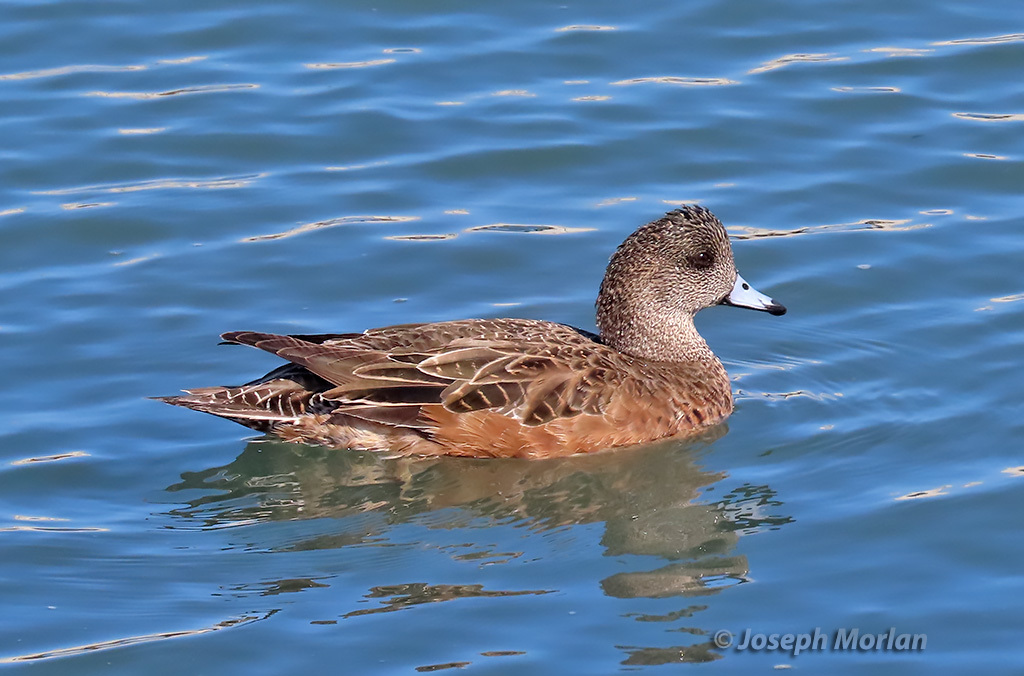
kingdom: Animalia
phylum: Chordata
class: Aves
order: Anseriformes
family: Anatidae
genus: Mareca
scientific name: Mareca americana
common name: American wigeon
